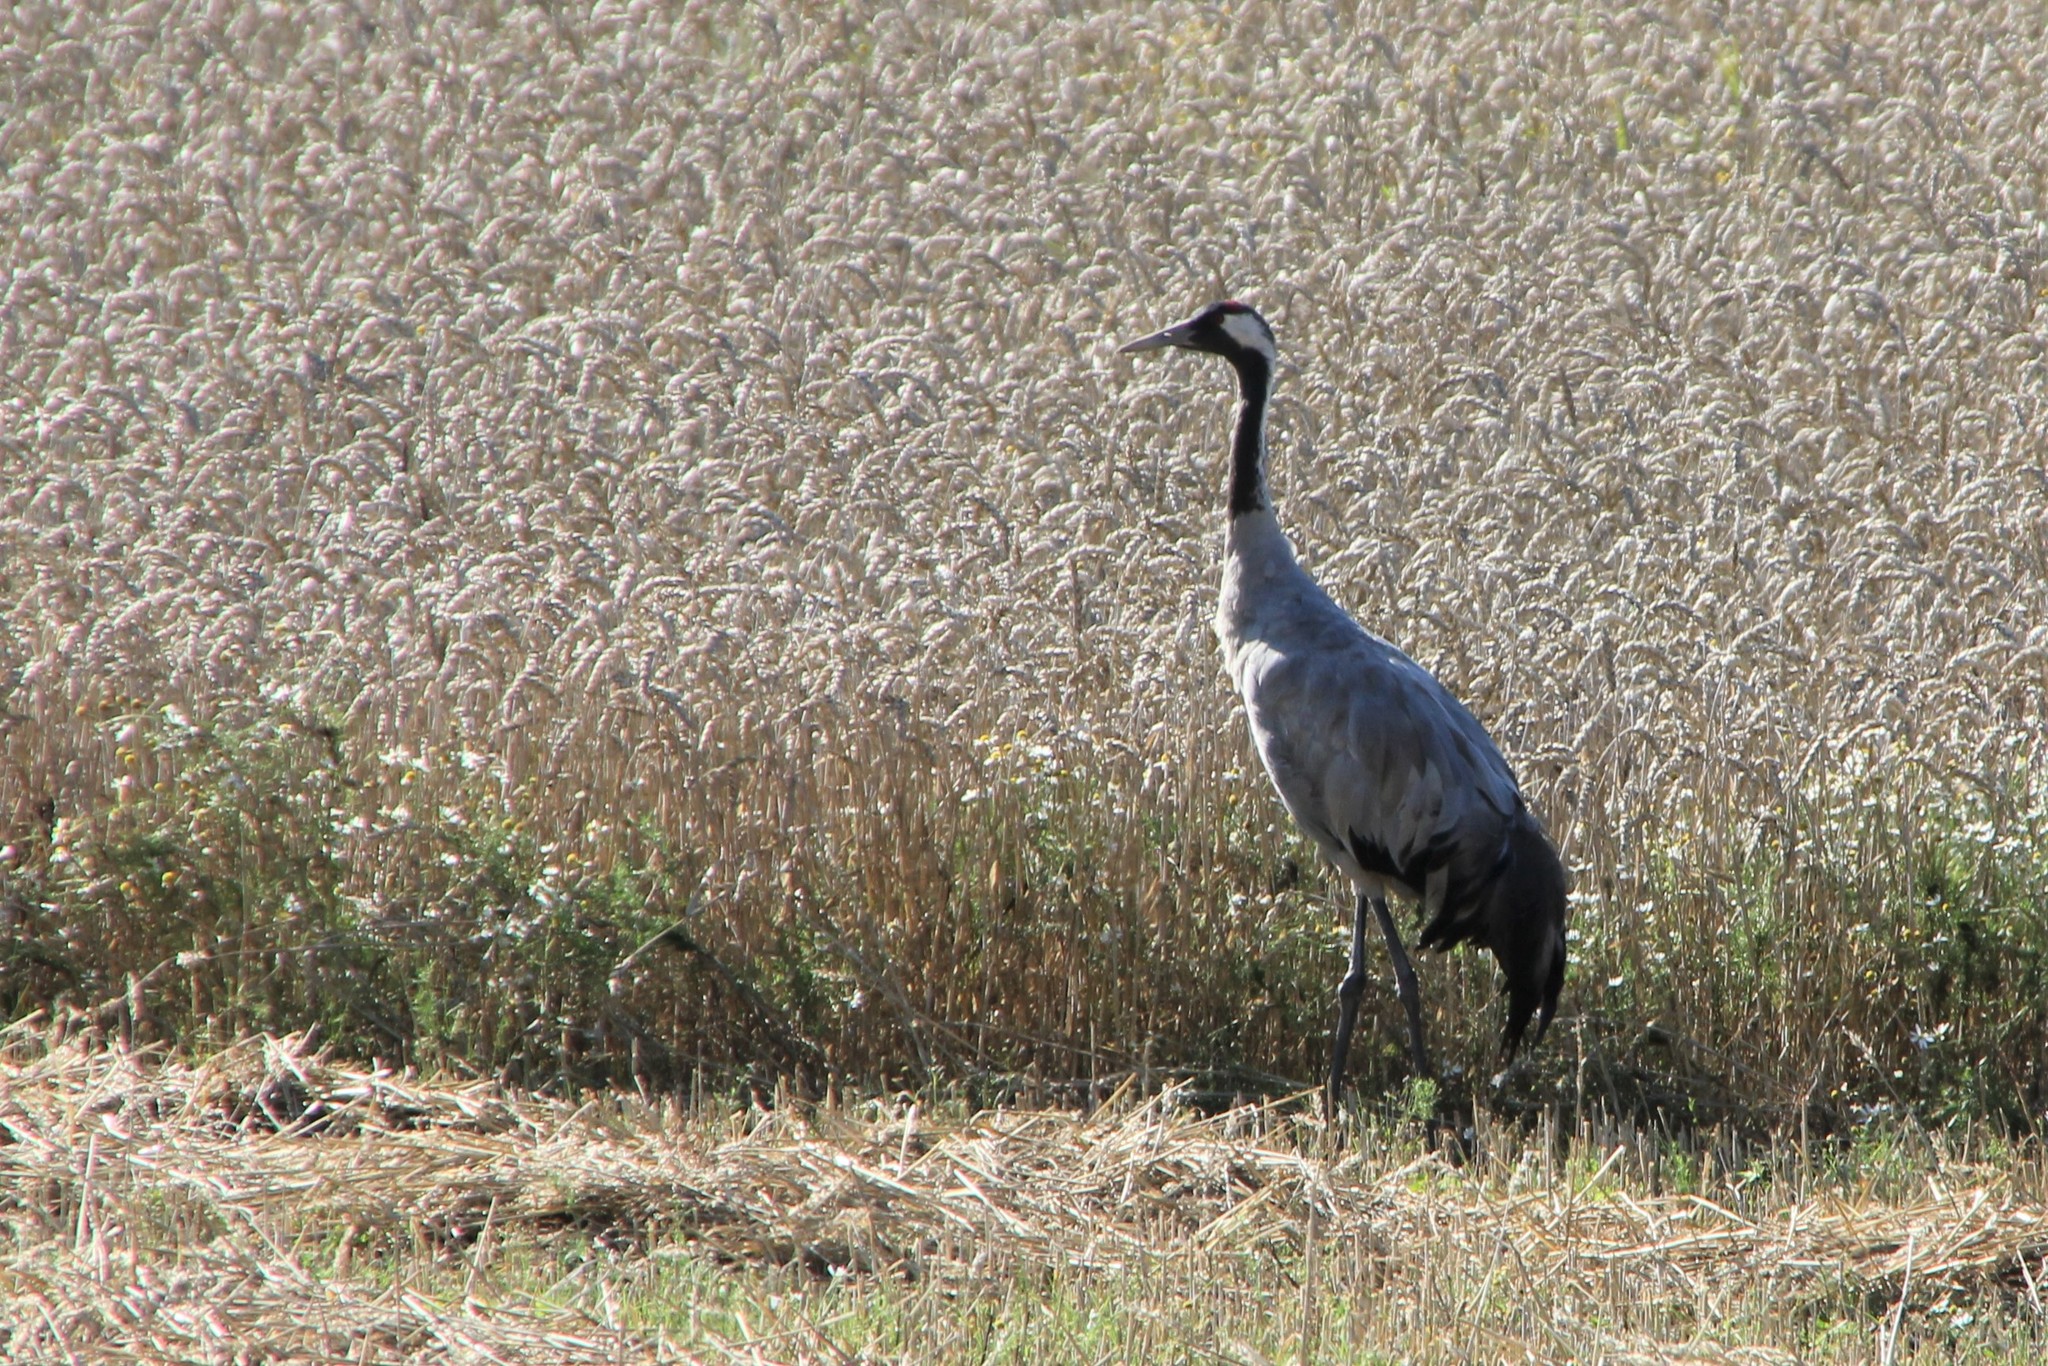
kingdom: Animalia
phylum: Chordata
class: Aves
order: Gruiformes
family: Gruidae
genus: Grus
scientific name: Grus grus
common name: Common crane
